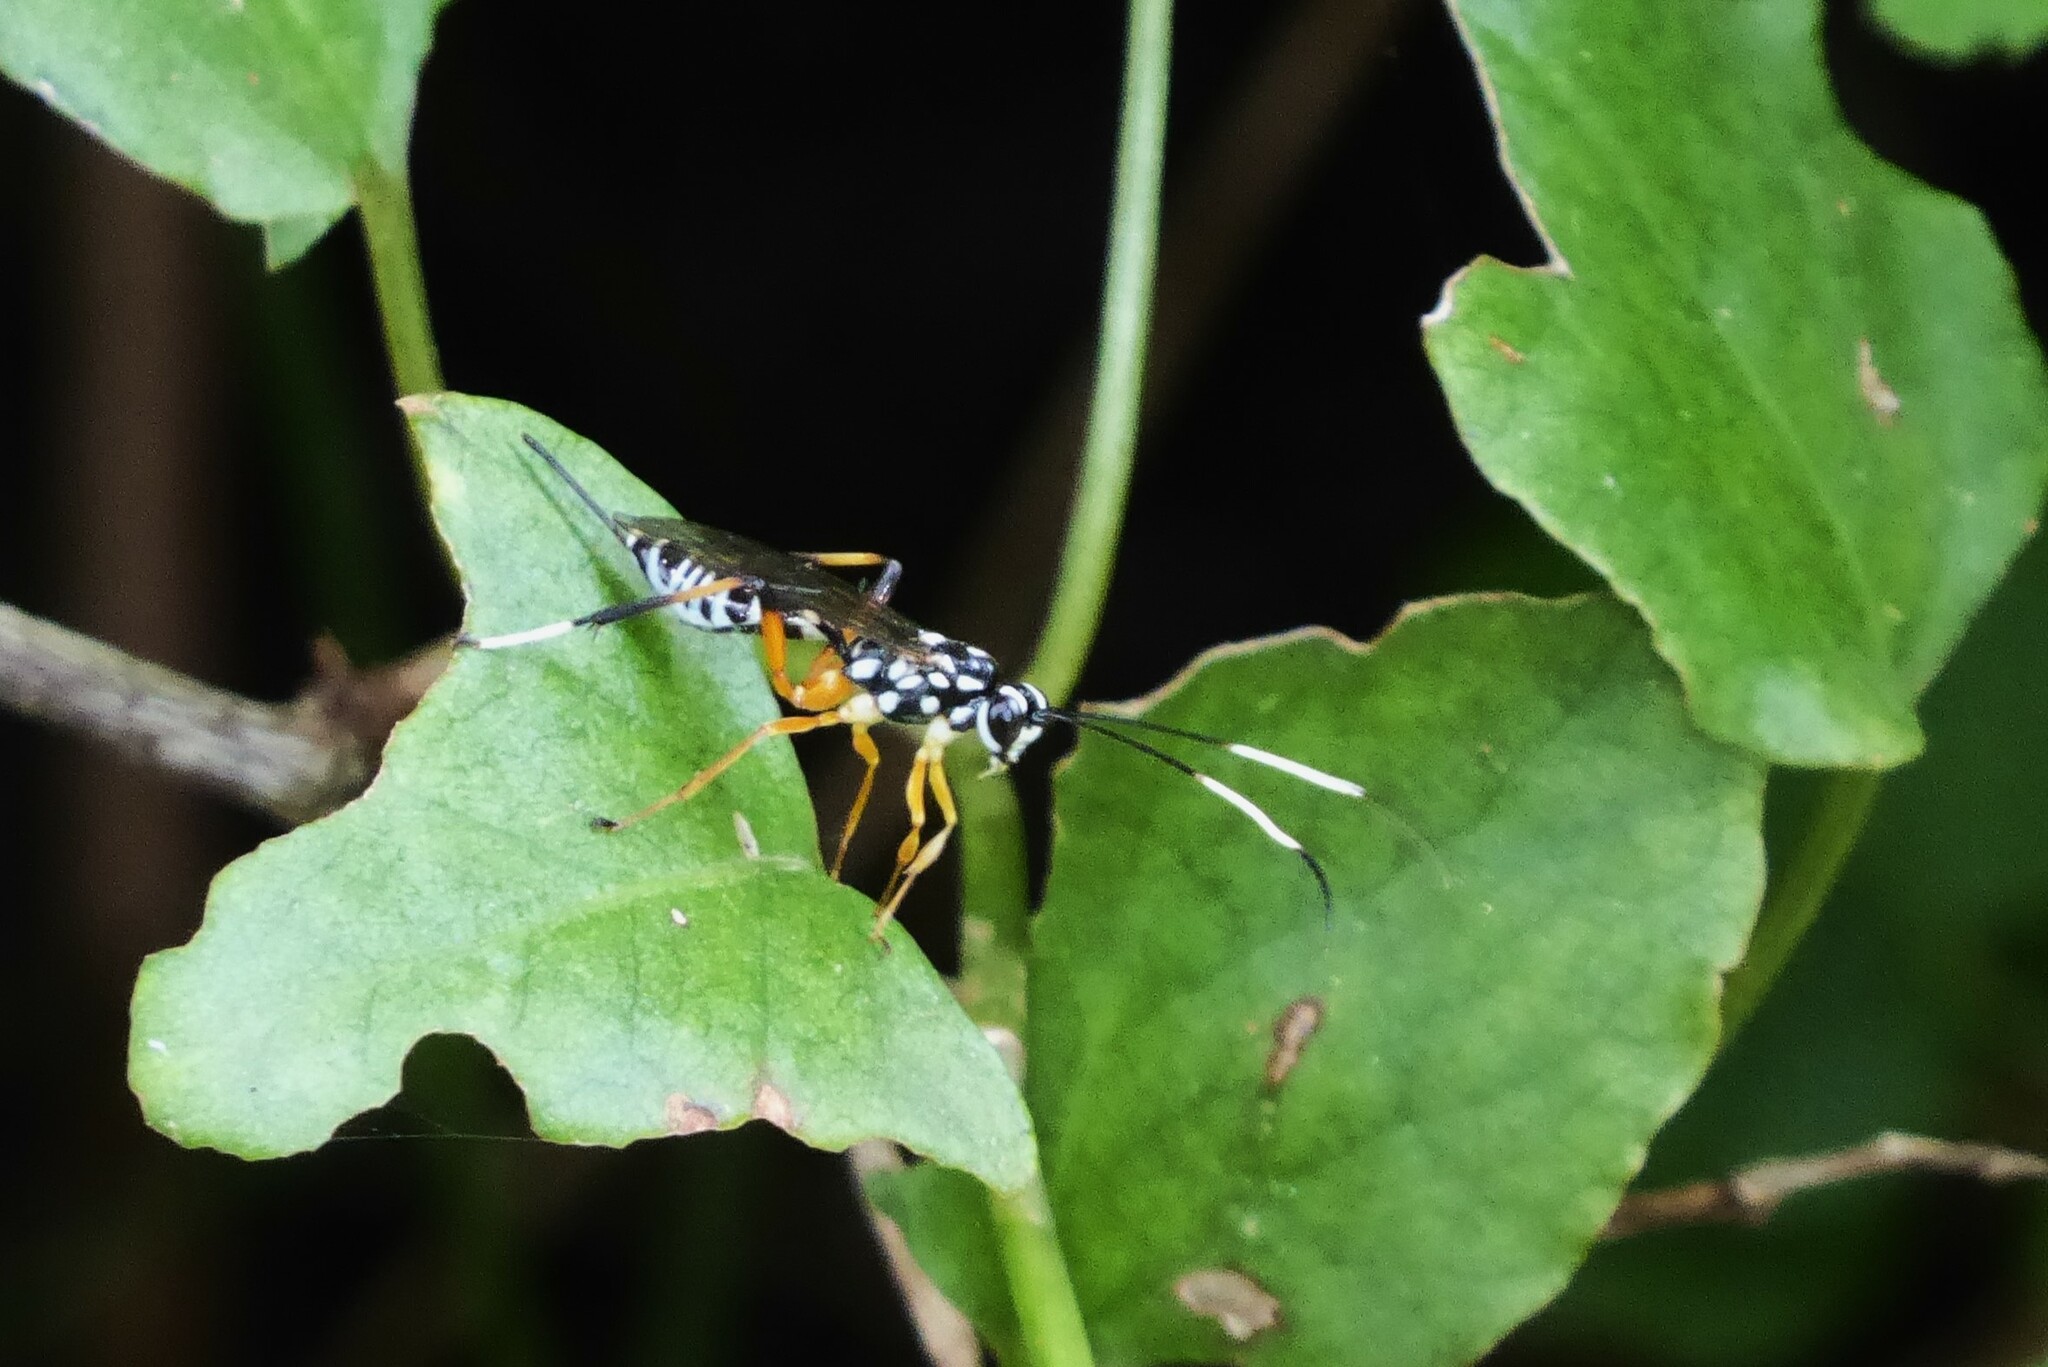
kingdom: Animalia
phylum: Arthropoda
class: Insecta
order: Hymenoptera
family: Ichneumonidae
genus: Xanthocryptus
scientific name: Xanthocryptus novozealandicus
